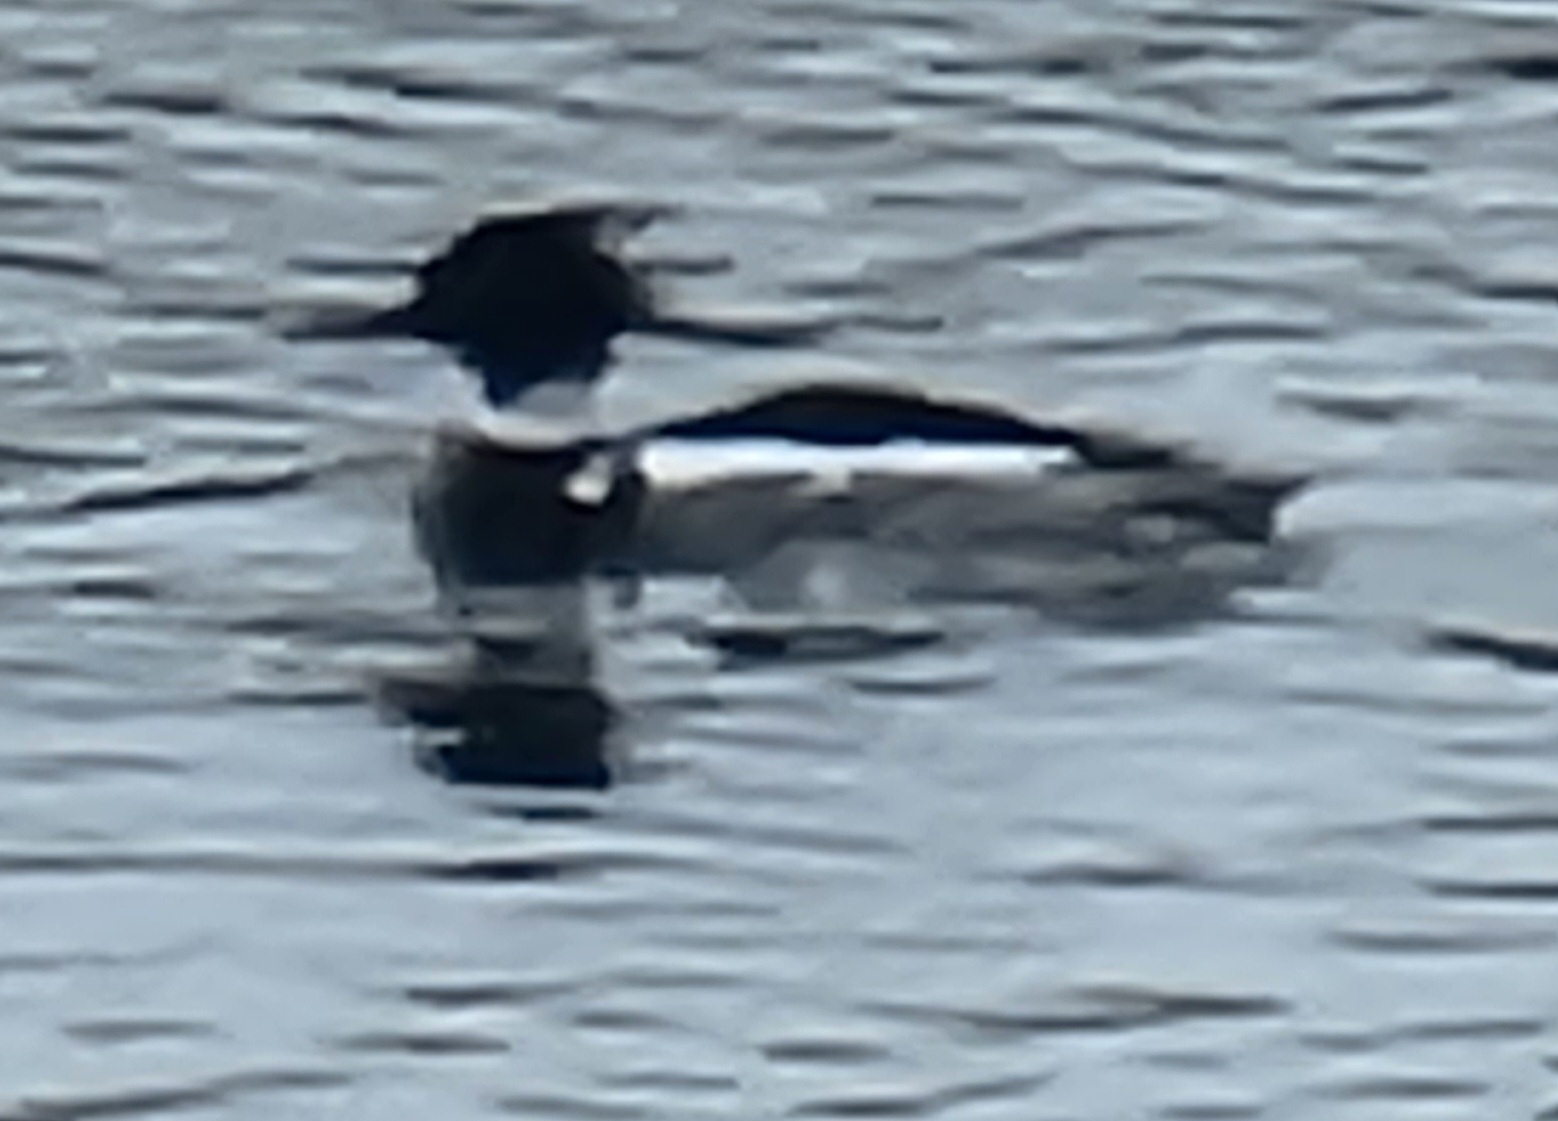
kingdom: Animalia
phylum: Chordata
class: Aves
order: Anseriformes
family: Anatidae
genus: Mergus
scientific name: Mergus serrator
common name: Red-breasted merganser
